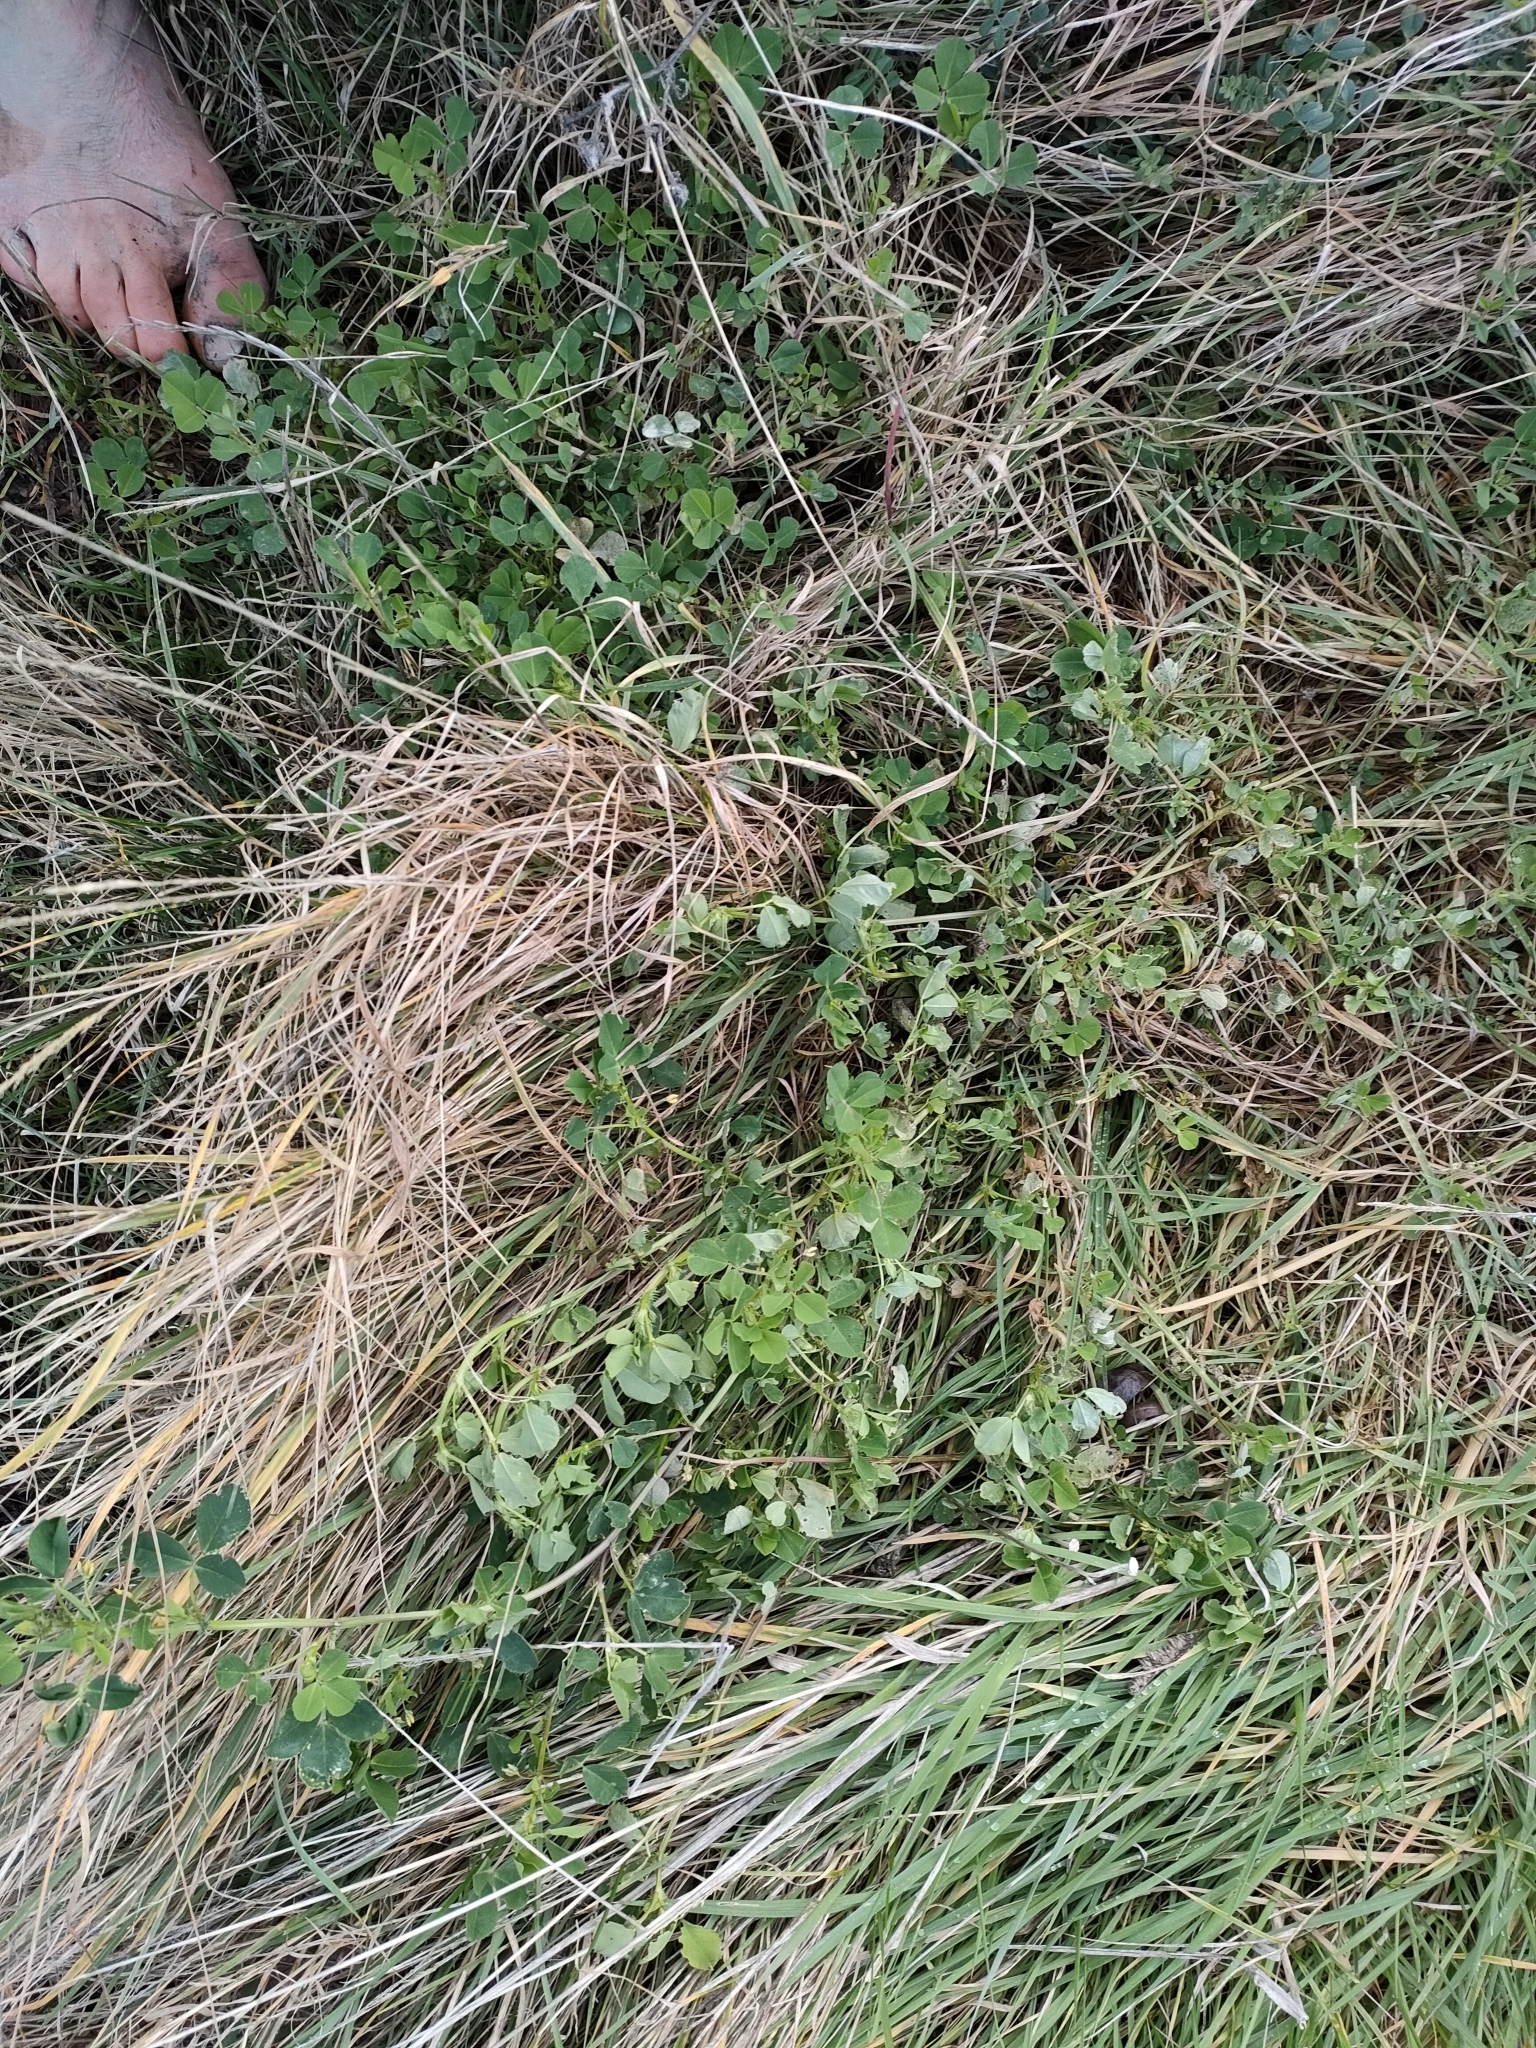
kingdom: Plantae
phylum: Tracheophyta
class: Magnoliopsida
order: Fabales
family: Fabaceae
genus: Medicago
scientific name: Medicago polymorpha
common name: Burclover
